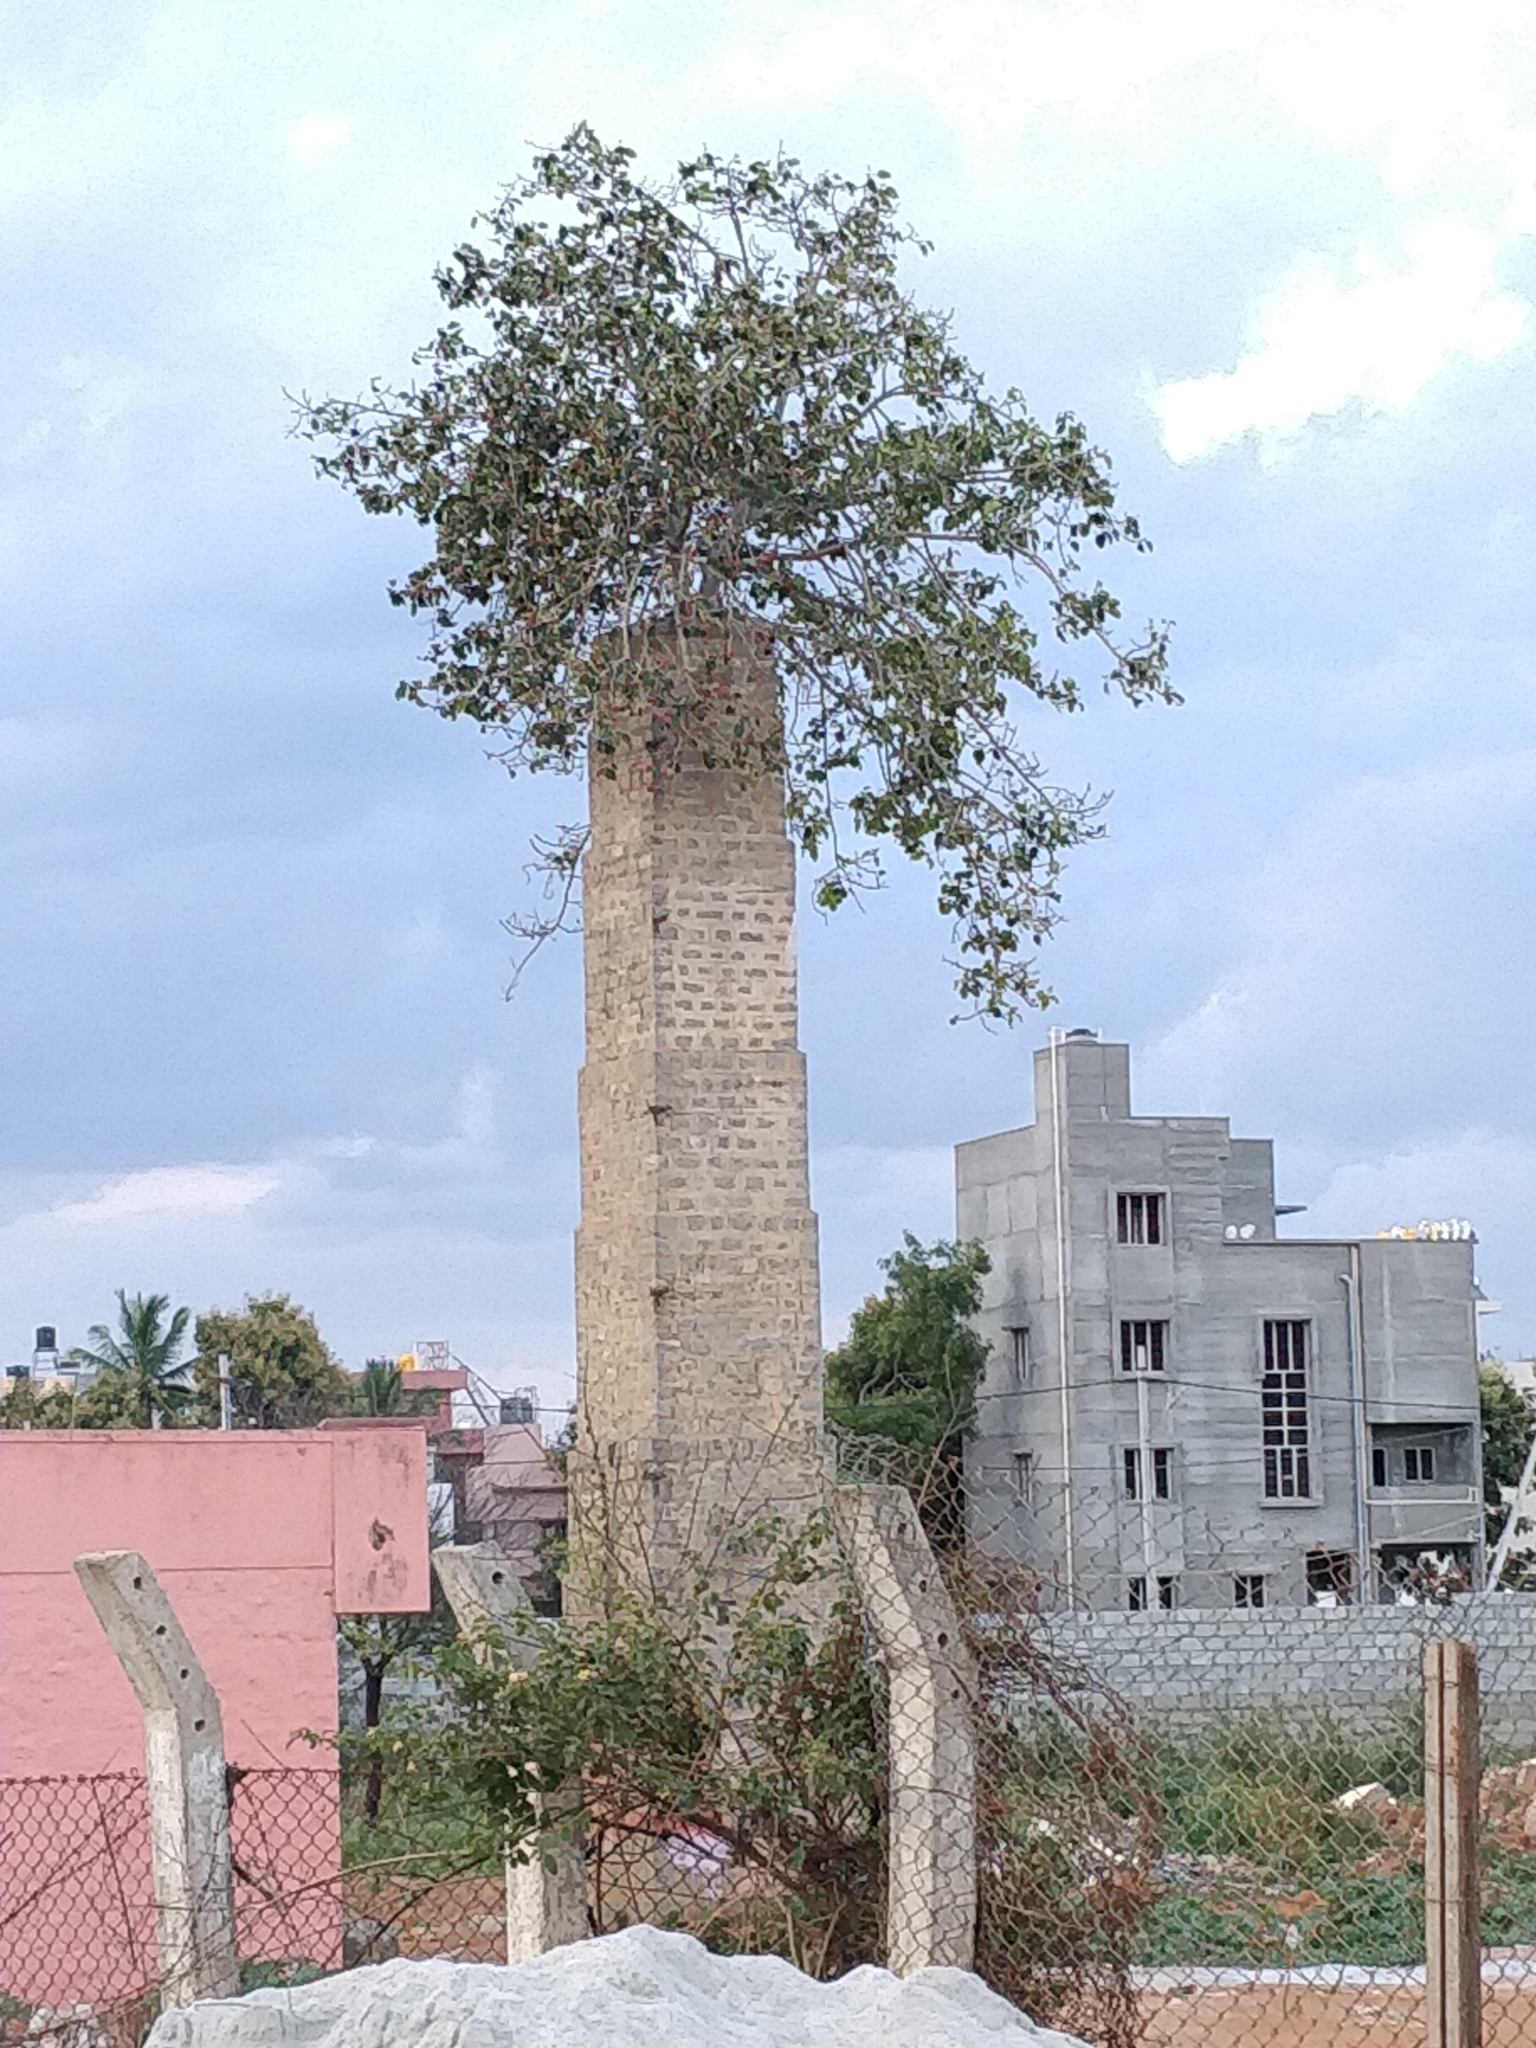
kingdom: Plantae
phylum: Tracheophyta
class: Magnoliopsida
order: Rosales
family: Moraceae
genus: Ficus
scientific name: Ficus benghalensis
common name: Indian banyan
